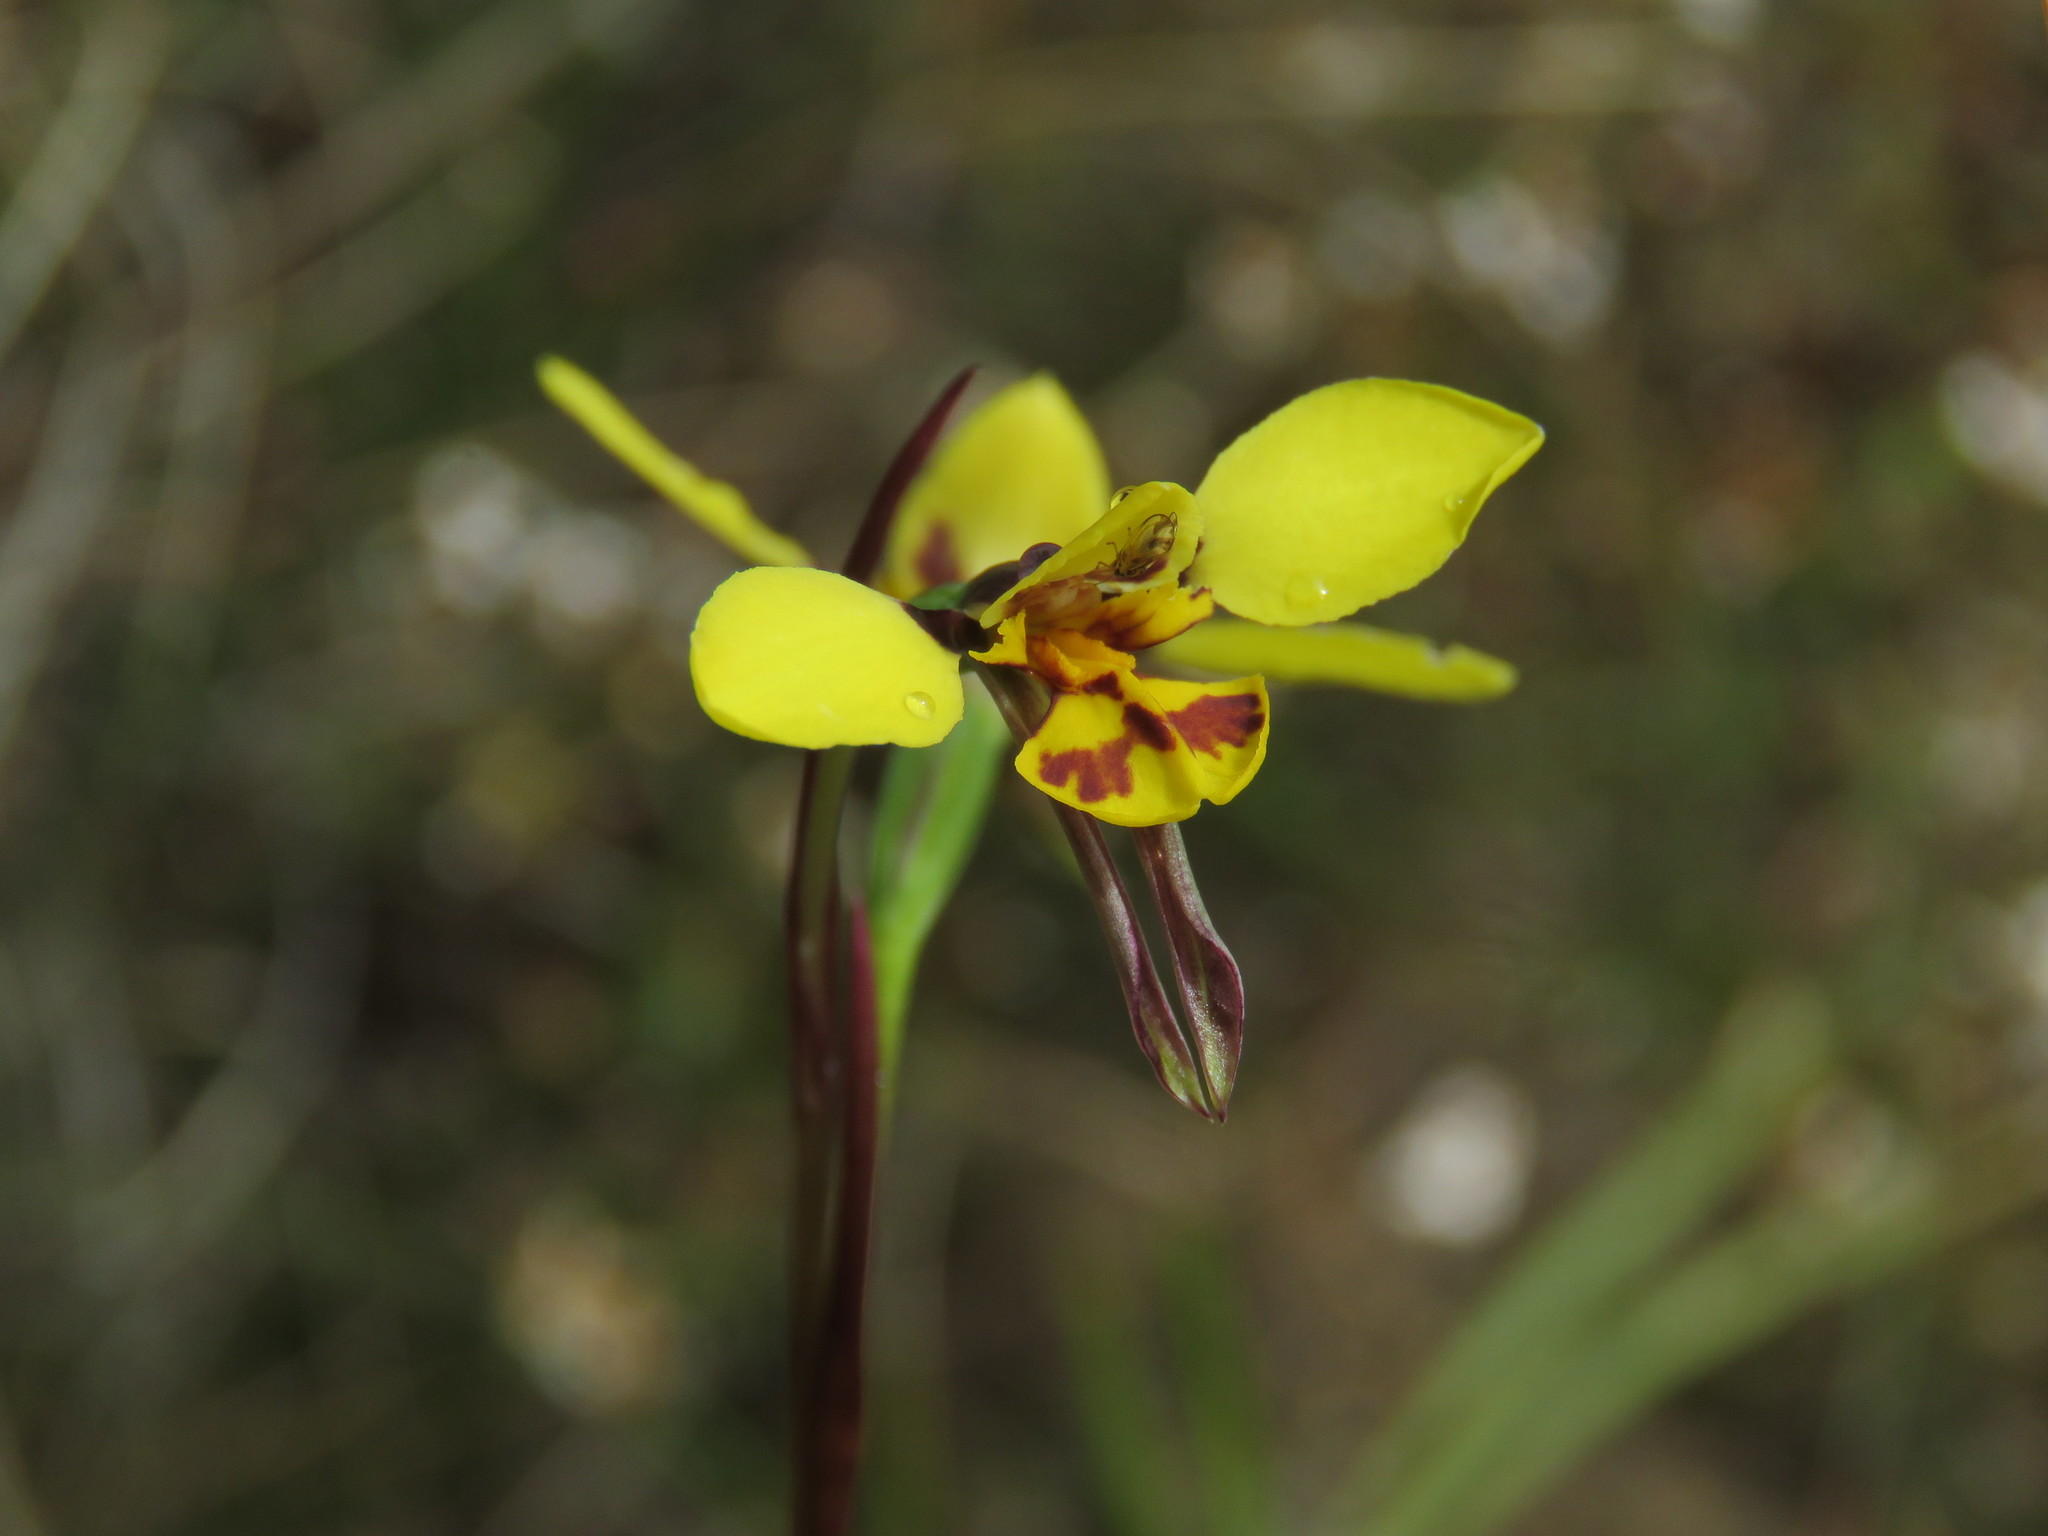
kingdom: Plantae
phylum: Tracheophyta
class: Liliopsida
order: Asparagales
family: Orchidaceae
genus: Diuris
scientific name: Diuris sulphurea
